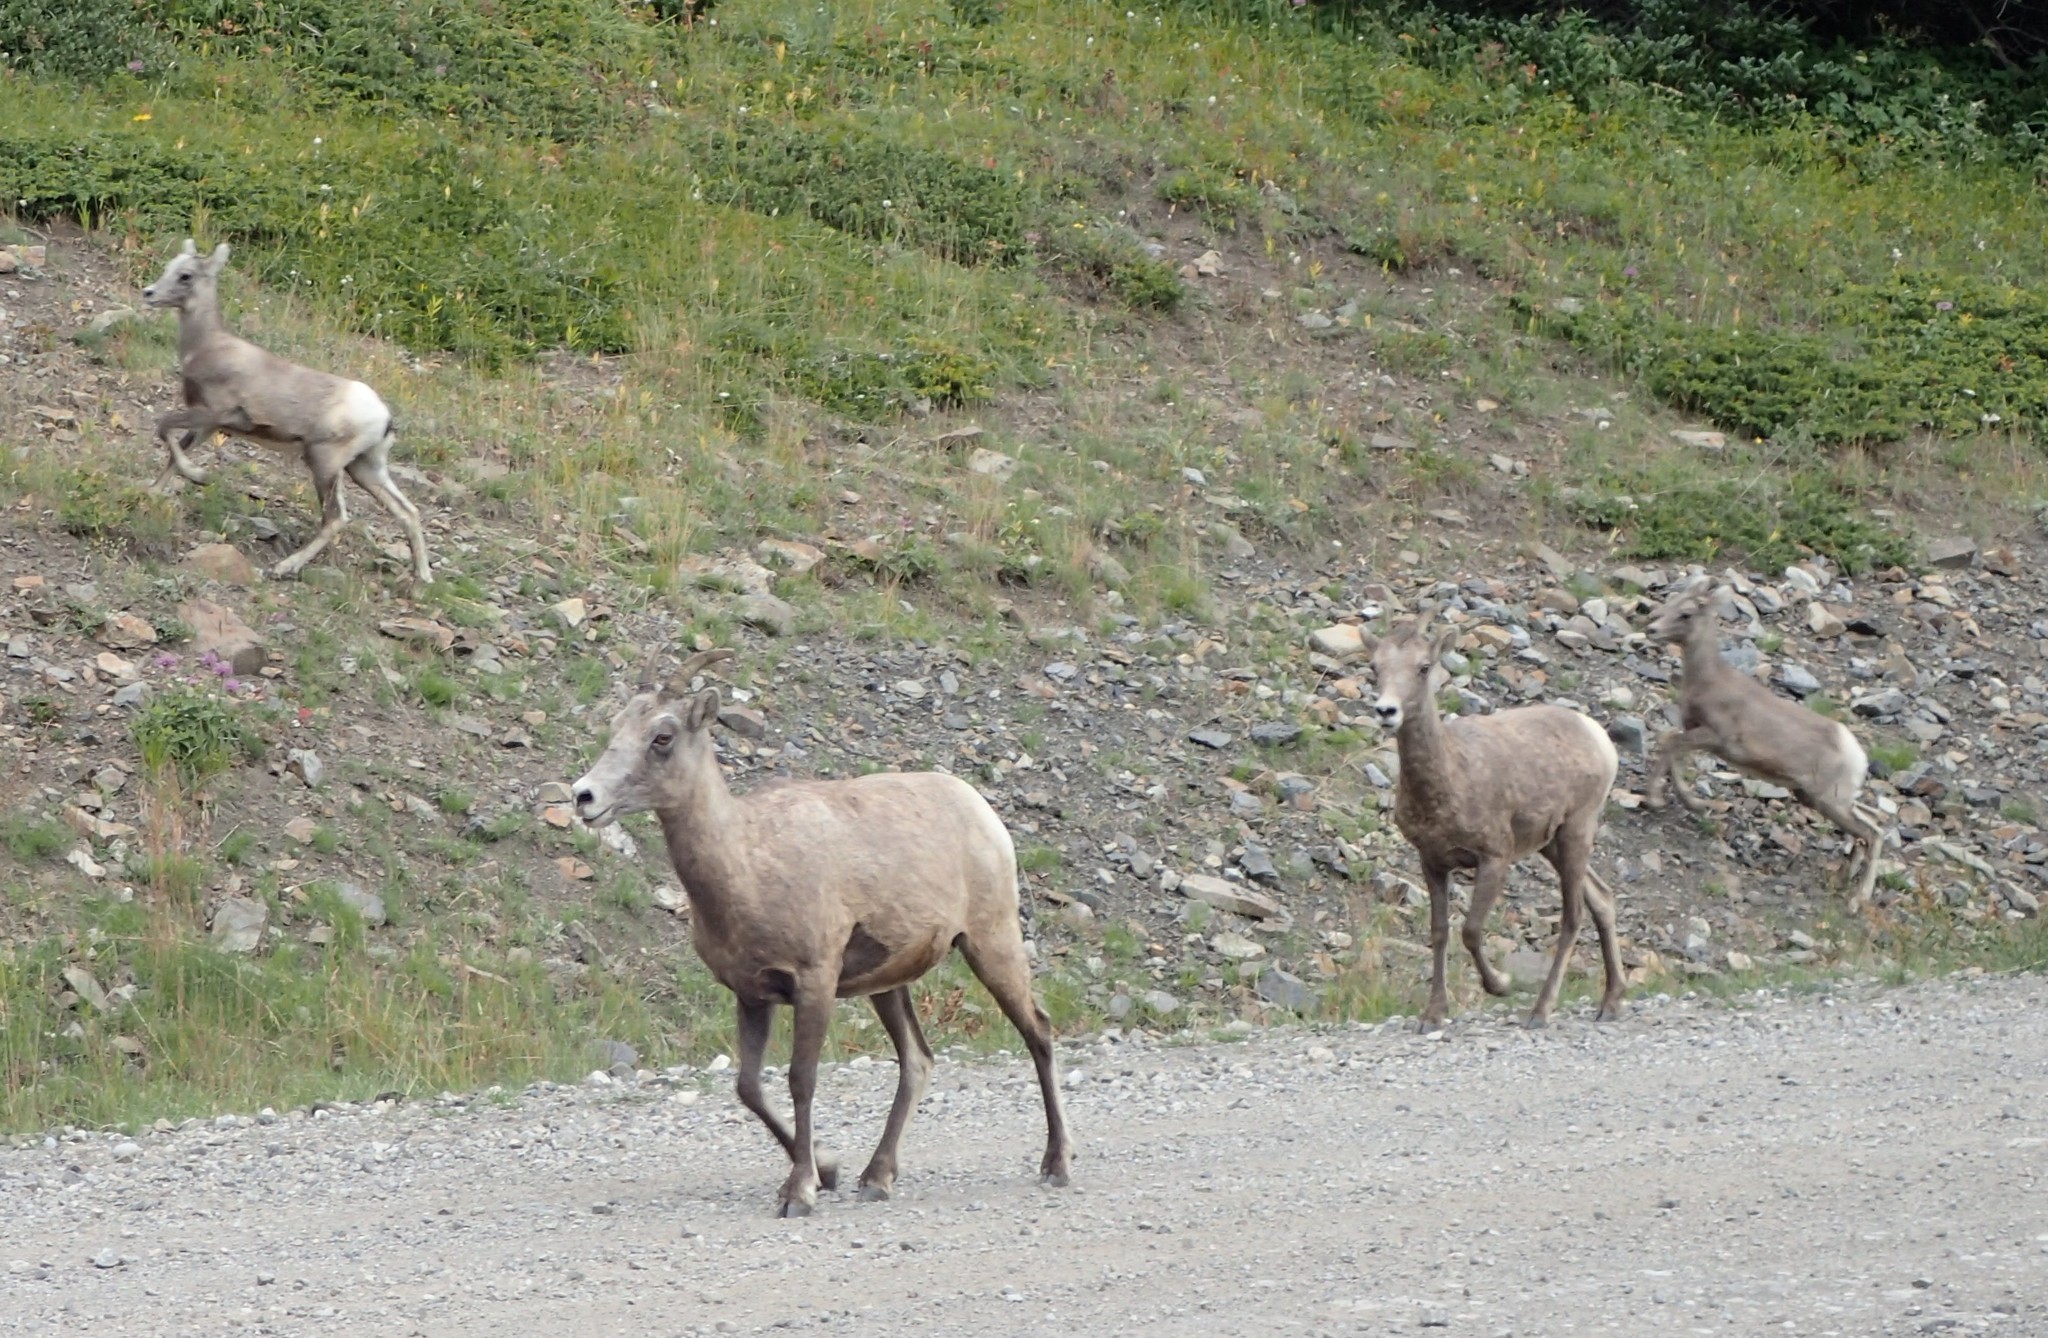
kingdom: Animalia
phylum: Chordata
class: Mammalia
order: Artiodactyla
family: Bovidae
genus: Ovis
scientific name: Ovis canadensis
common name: Bighorn sheep
